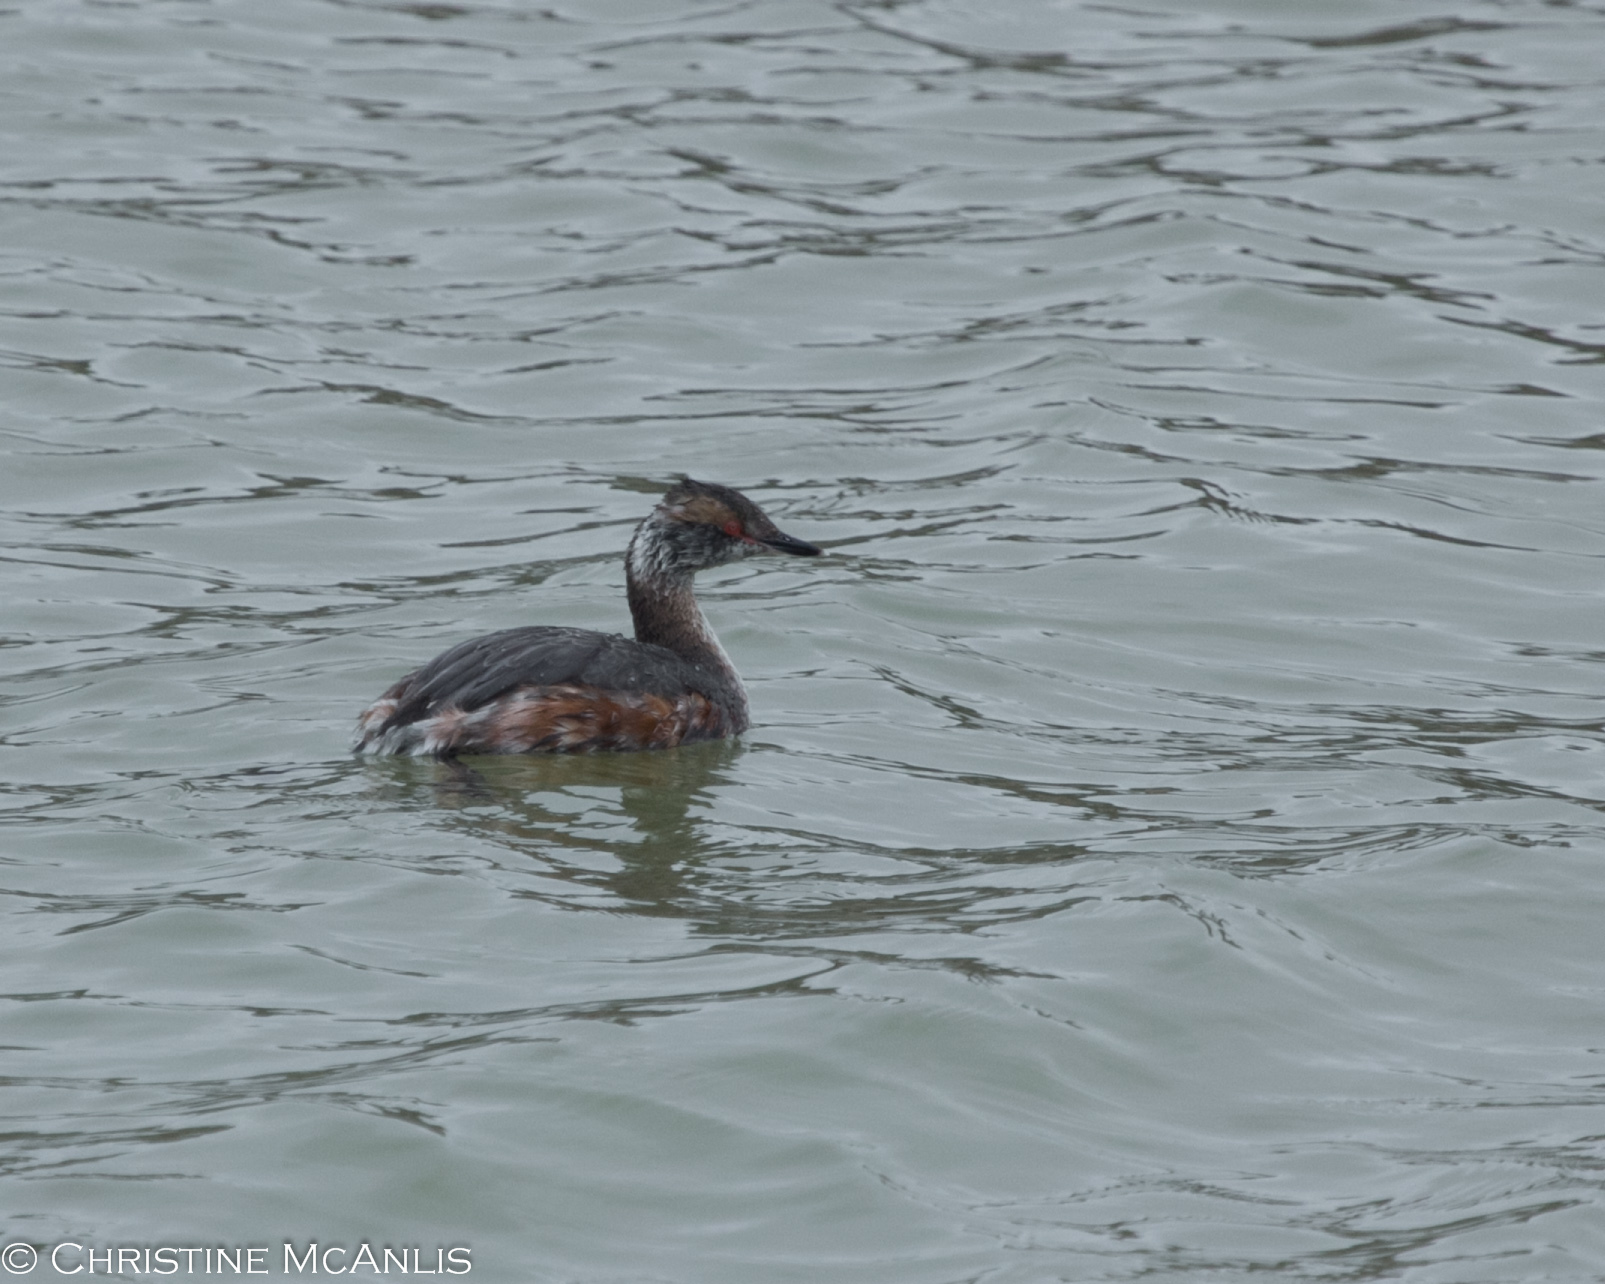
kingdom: Animalia
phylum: Chordata
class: Aves
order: Podicipediformes
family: Podicipedidae
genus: Podiceps
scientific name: Podiceps auritus
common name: Horned grebe
